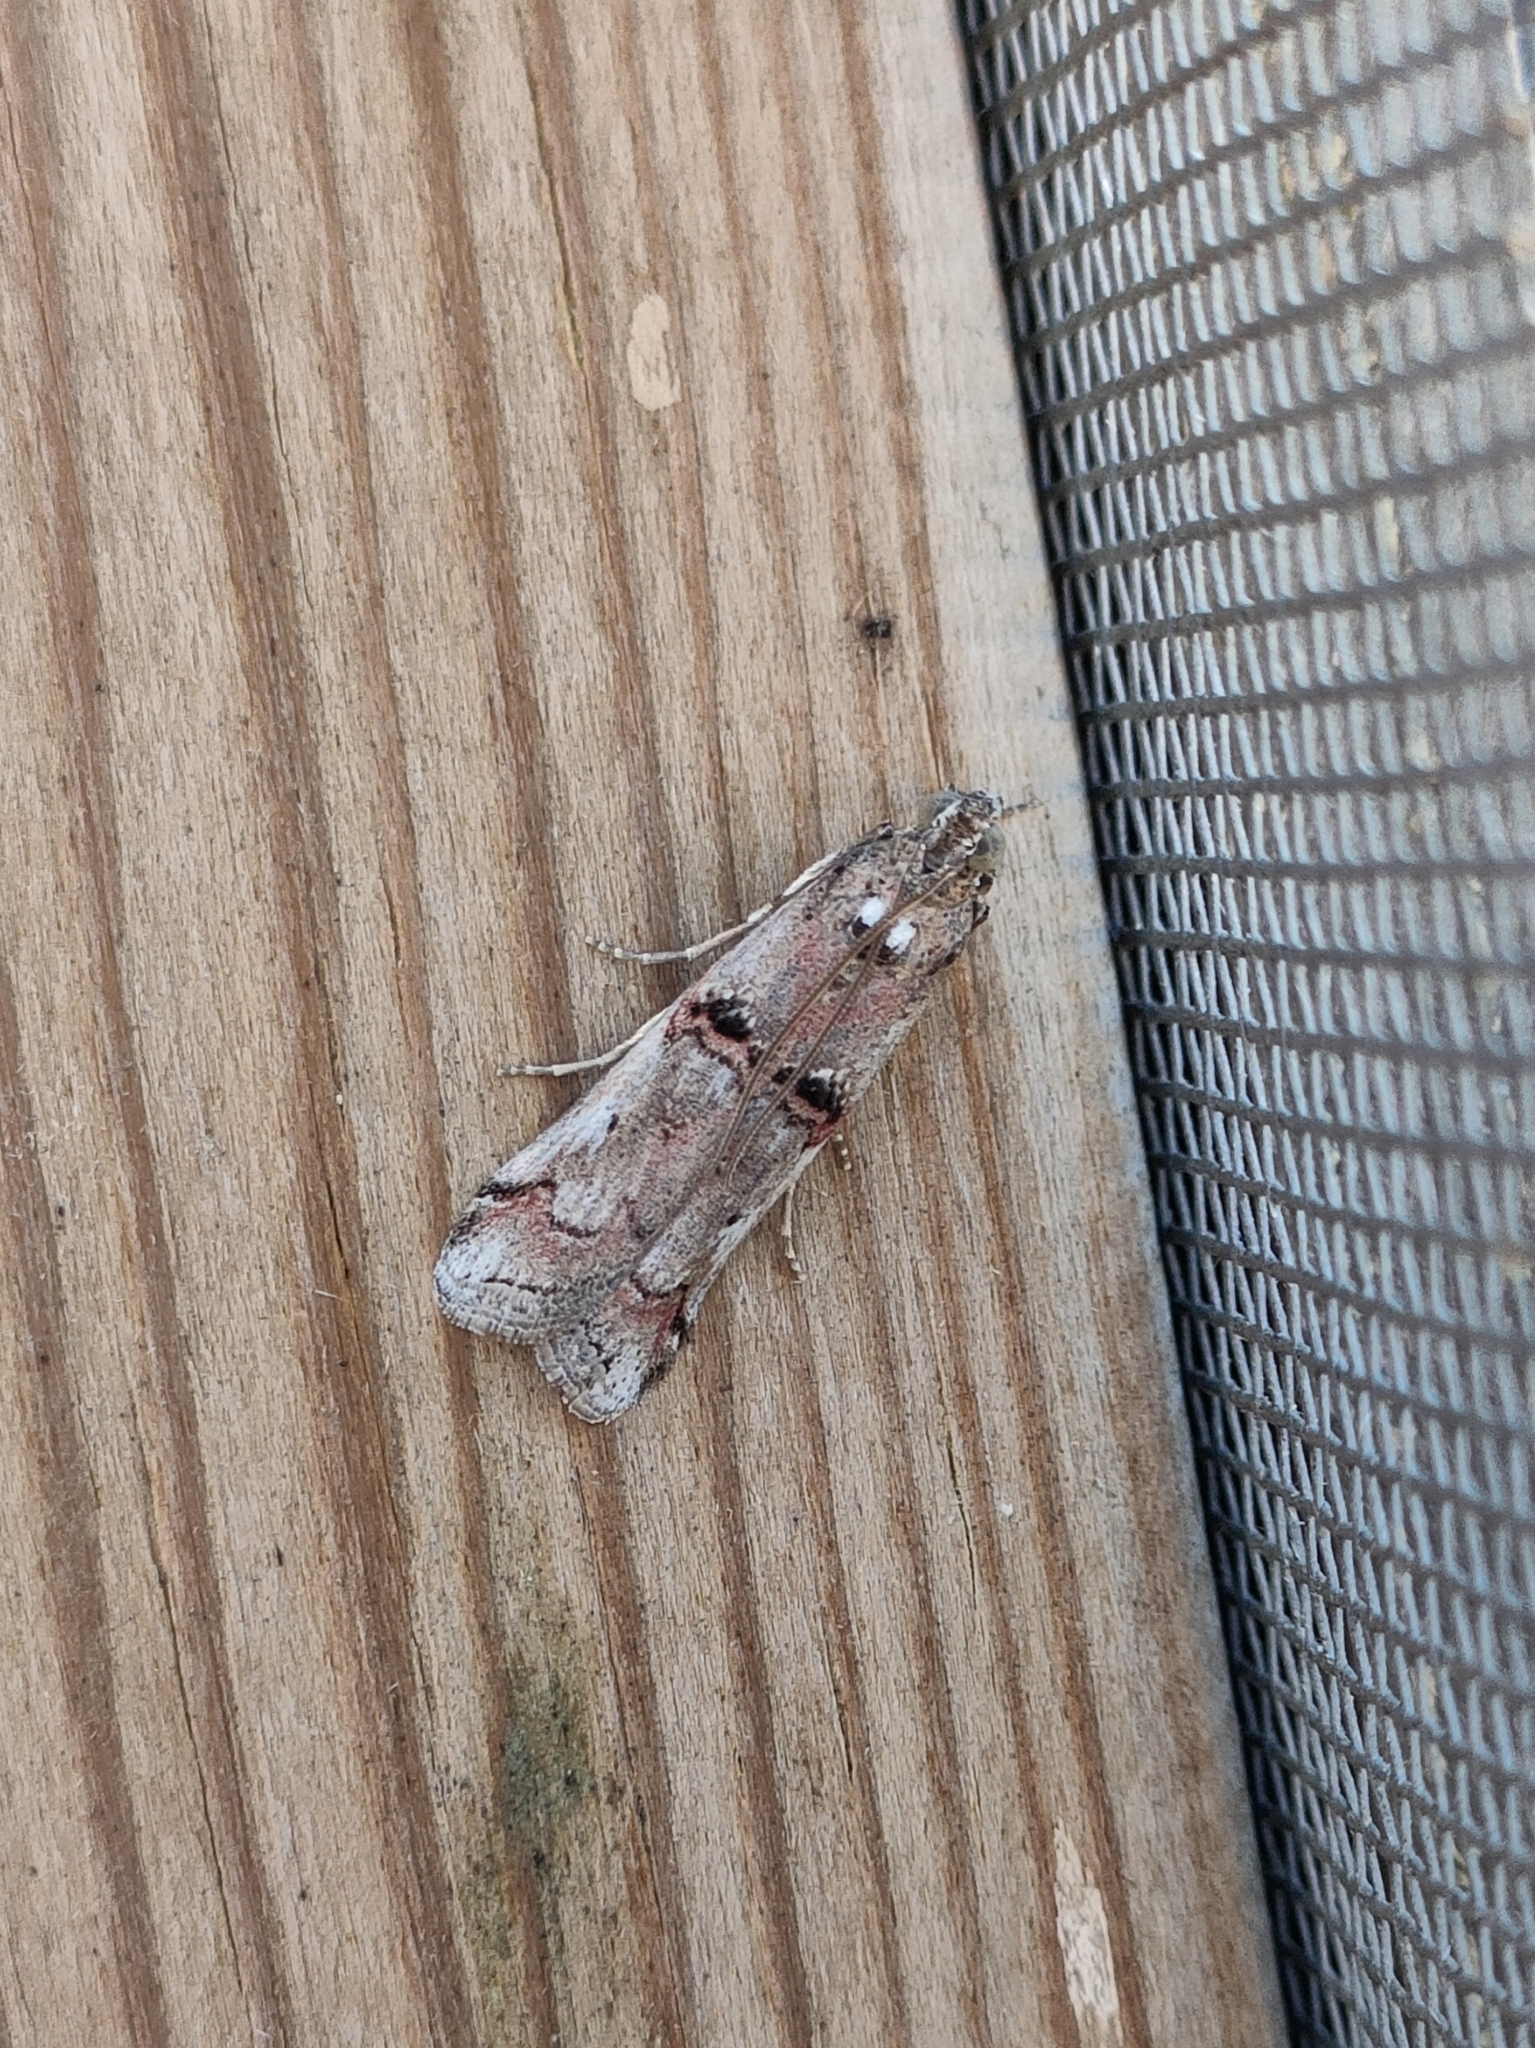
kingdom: Animalia
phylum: Arthropoda
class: Insecta
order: Lepidoptera
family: Pyralidae
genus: Pempelia
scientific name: Pempelia palumbella
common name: Heather knot-horn
